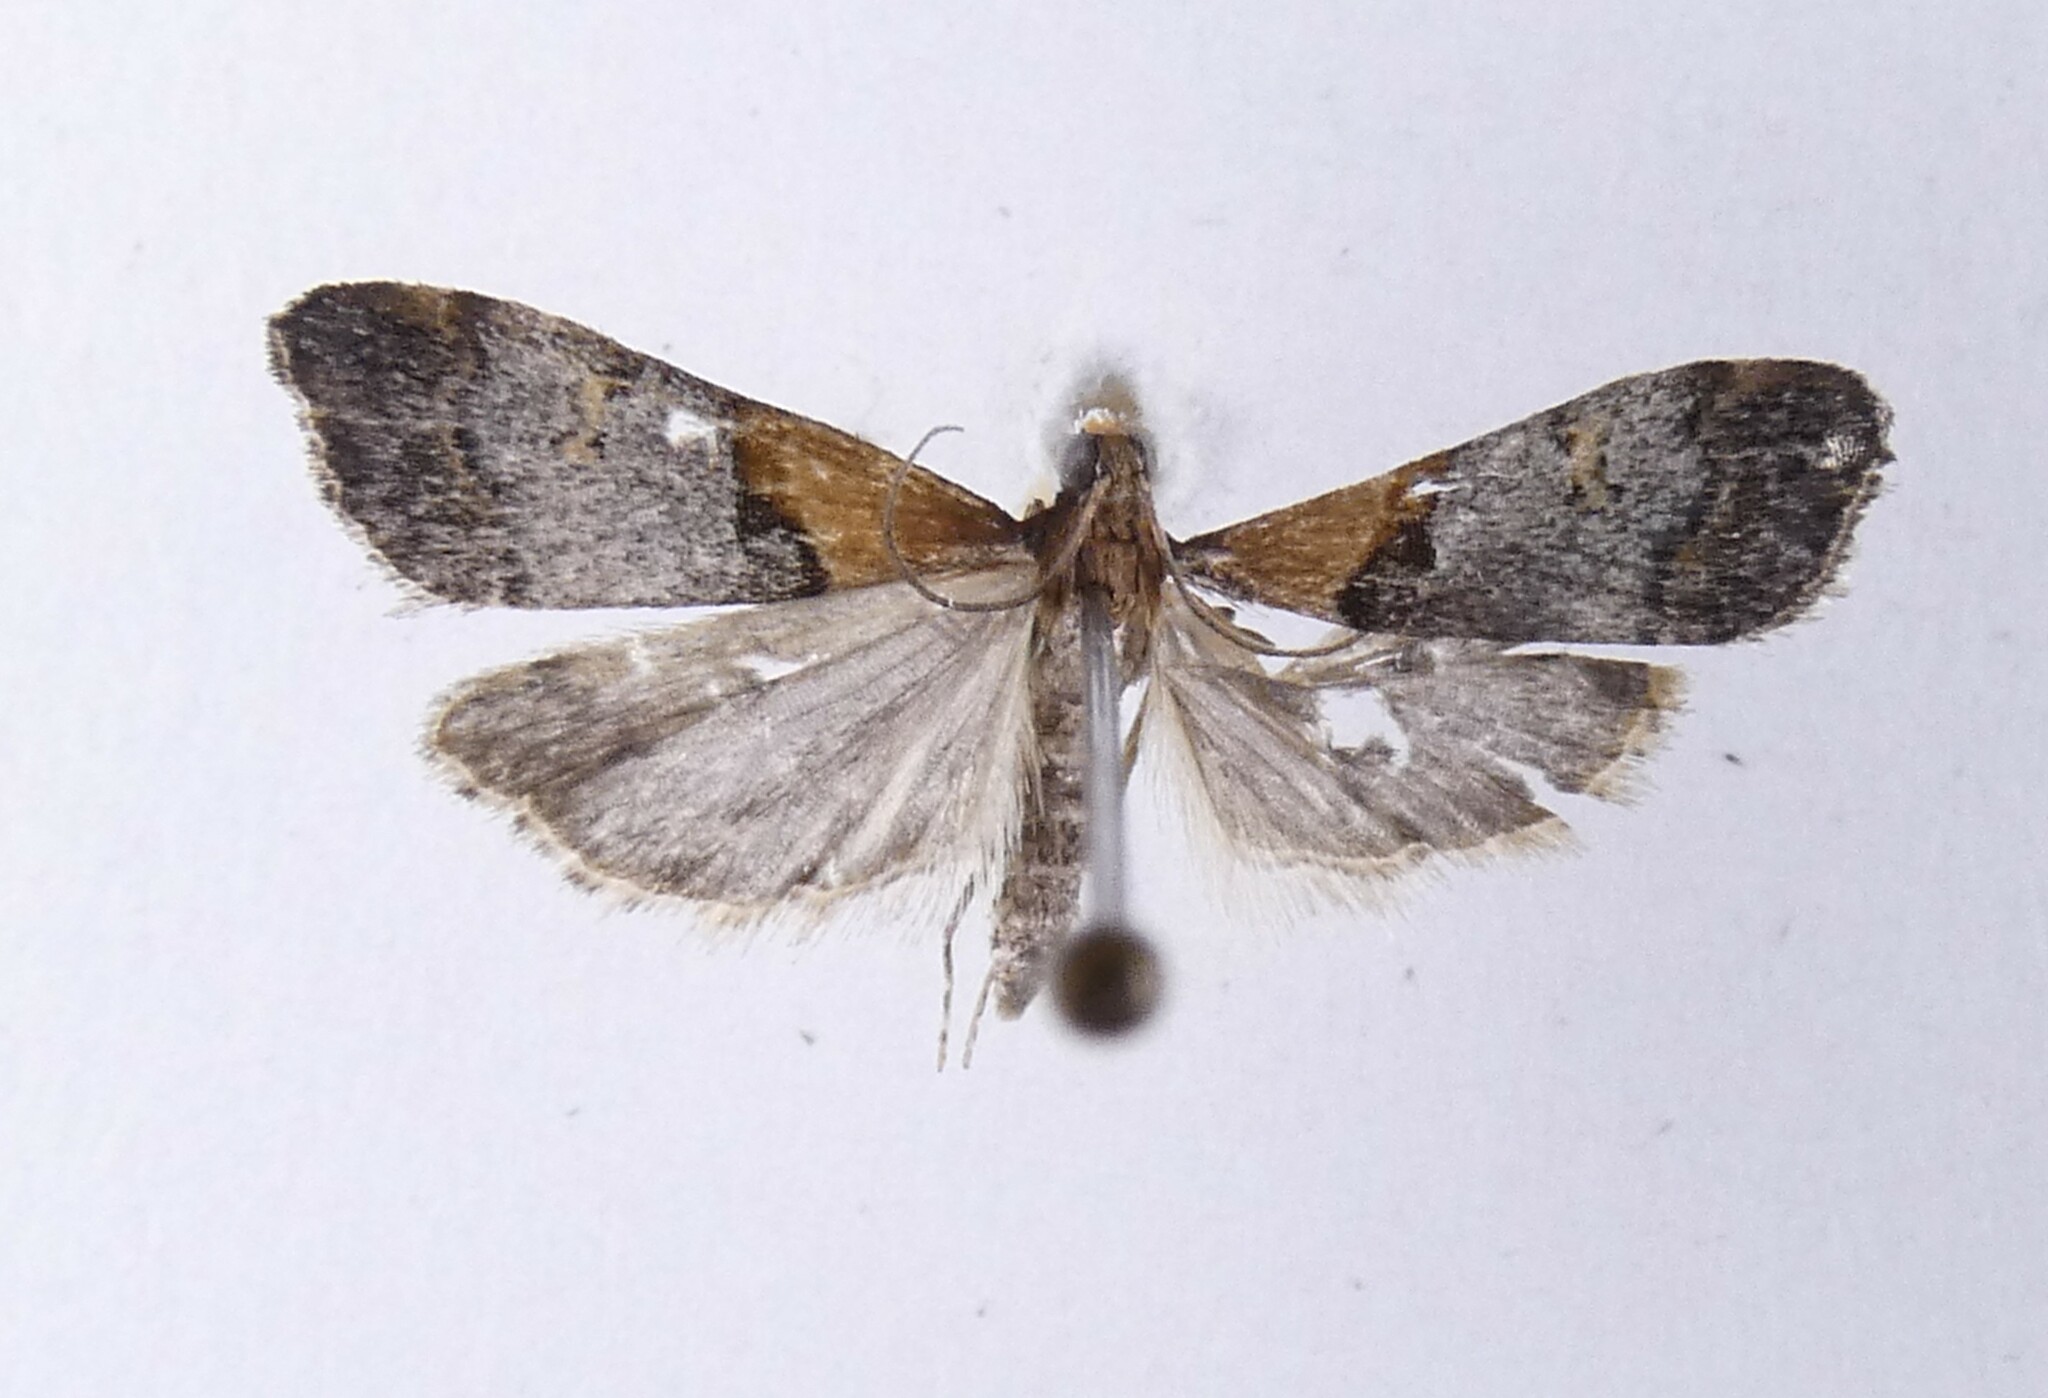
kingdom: Animalia
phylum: Arthropoda
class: Insecta
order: Lepidoptera
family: Crambidae
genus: Antiscopa
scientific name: Antiscopa epicomia
